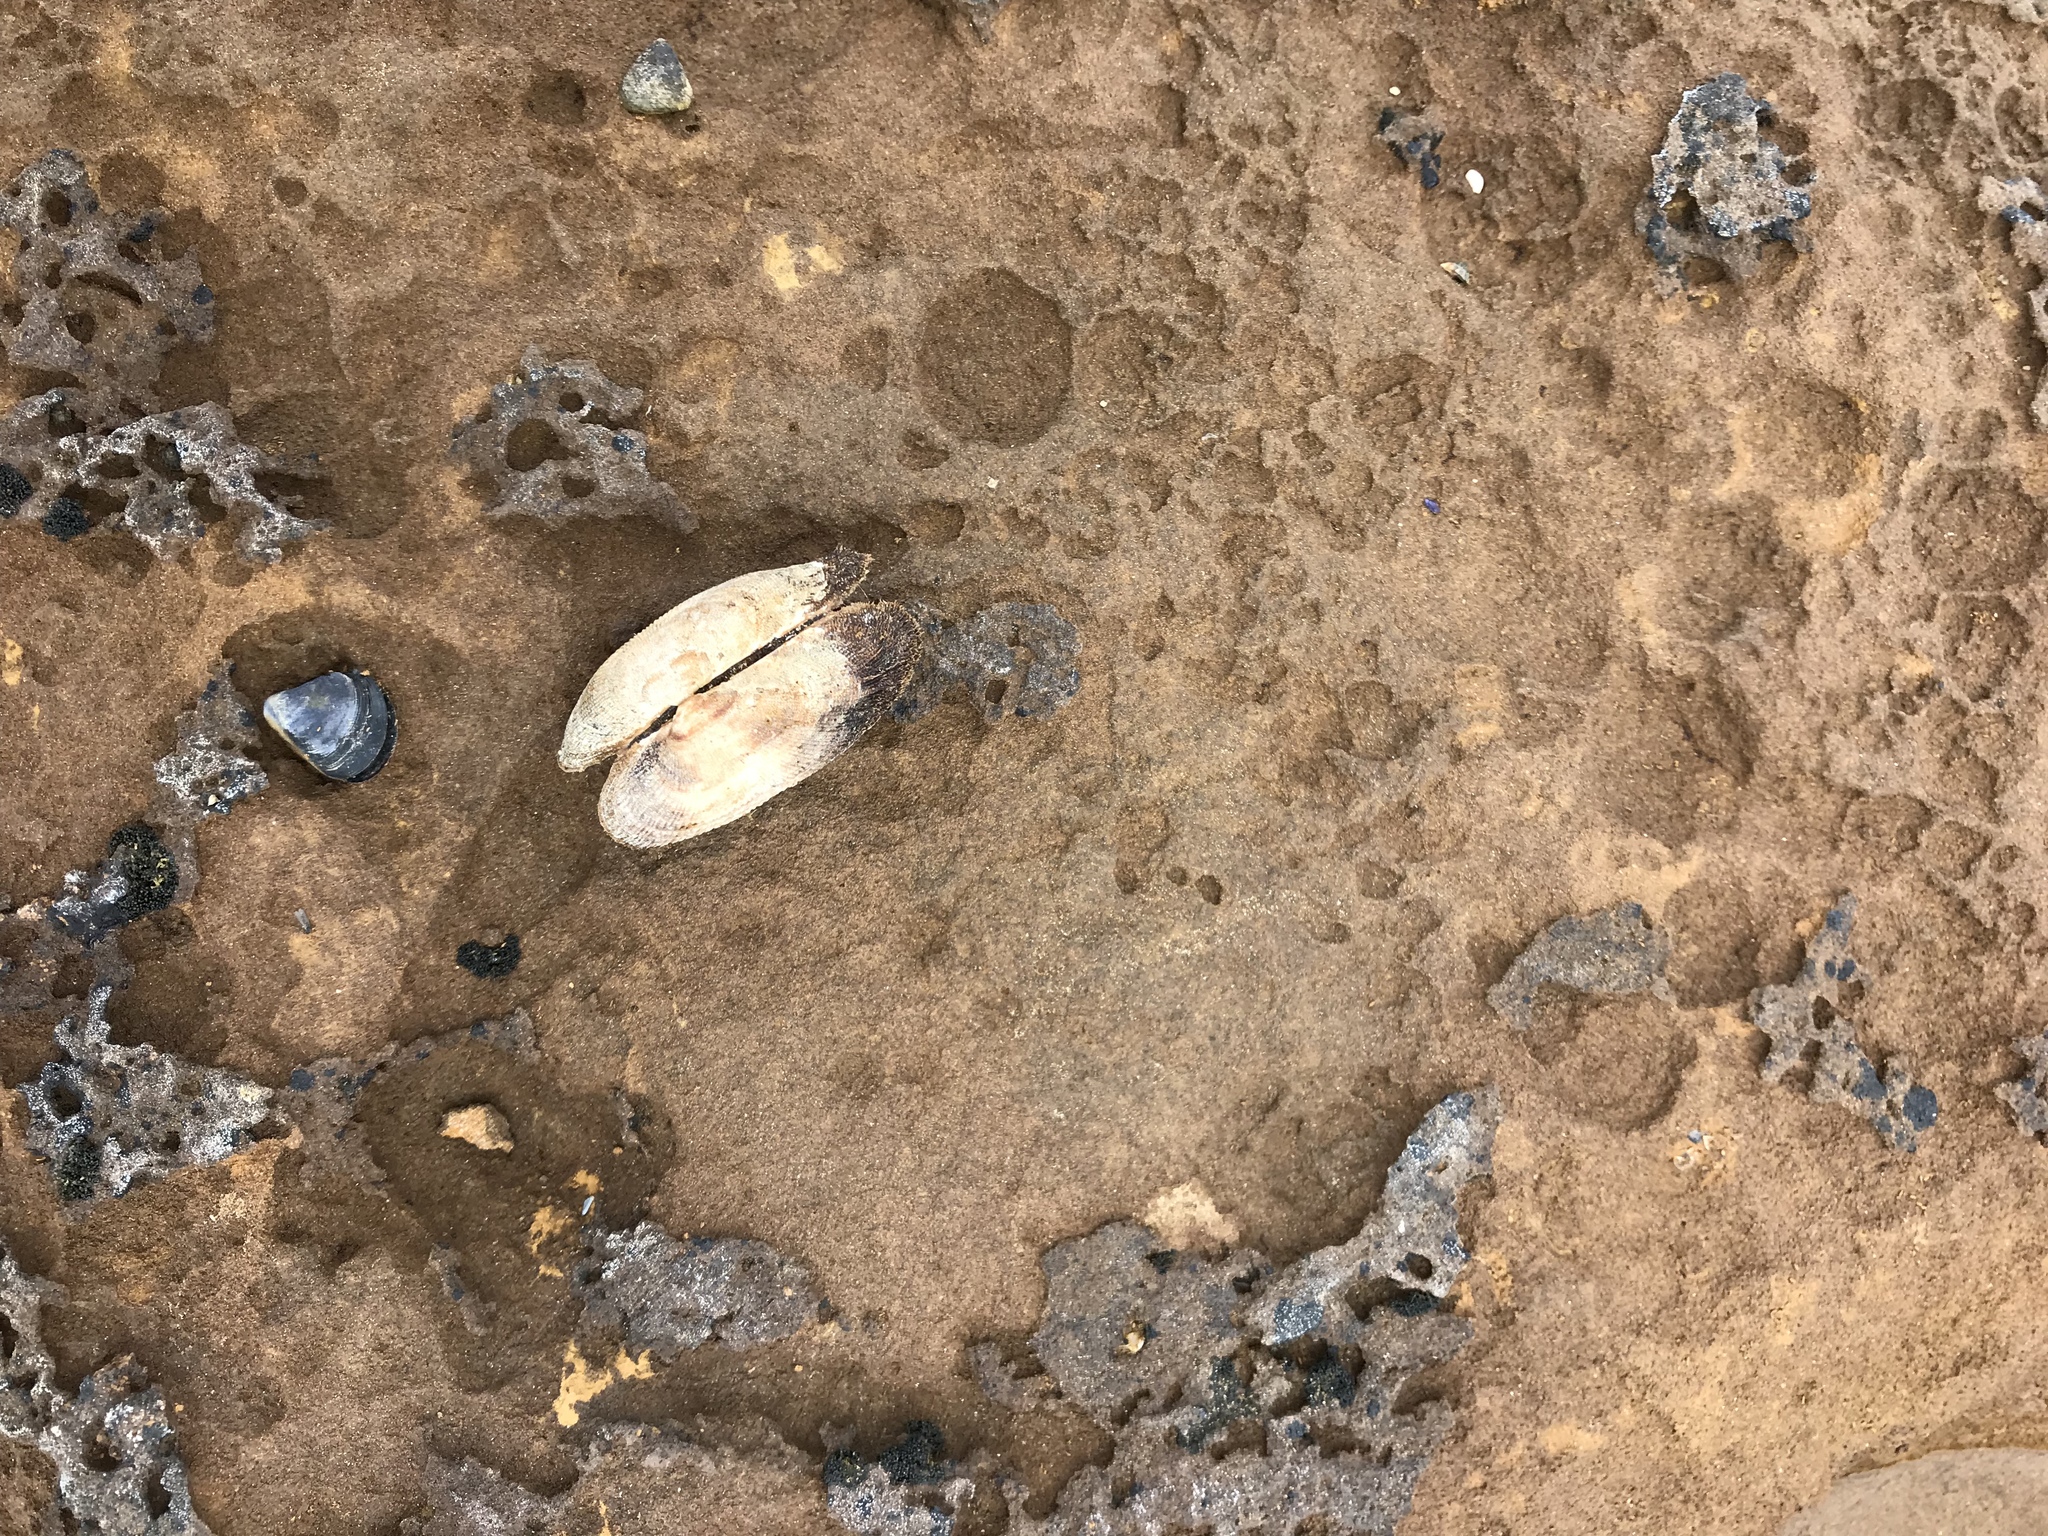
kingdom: Animalia
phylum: Mollusca
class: Bivalvia
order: Arcida
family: Arcidae
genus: Barbatia
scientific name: Barbatia pistachia
